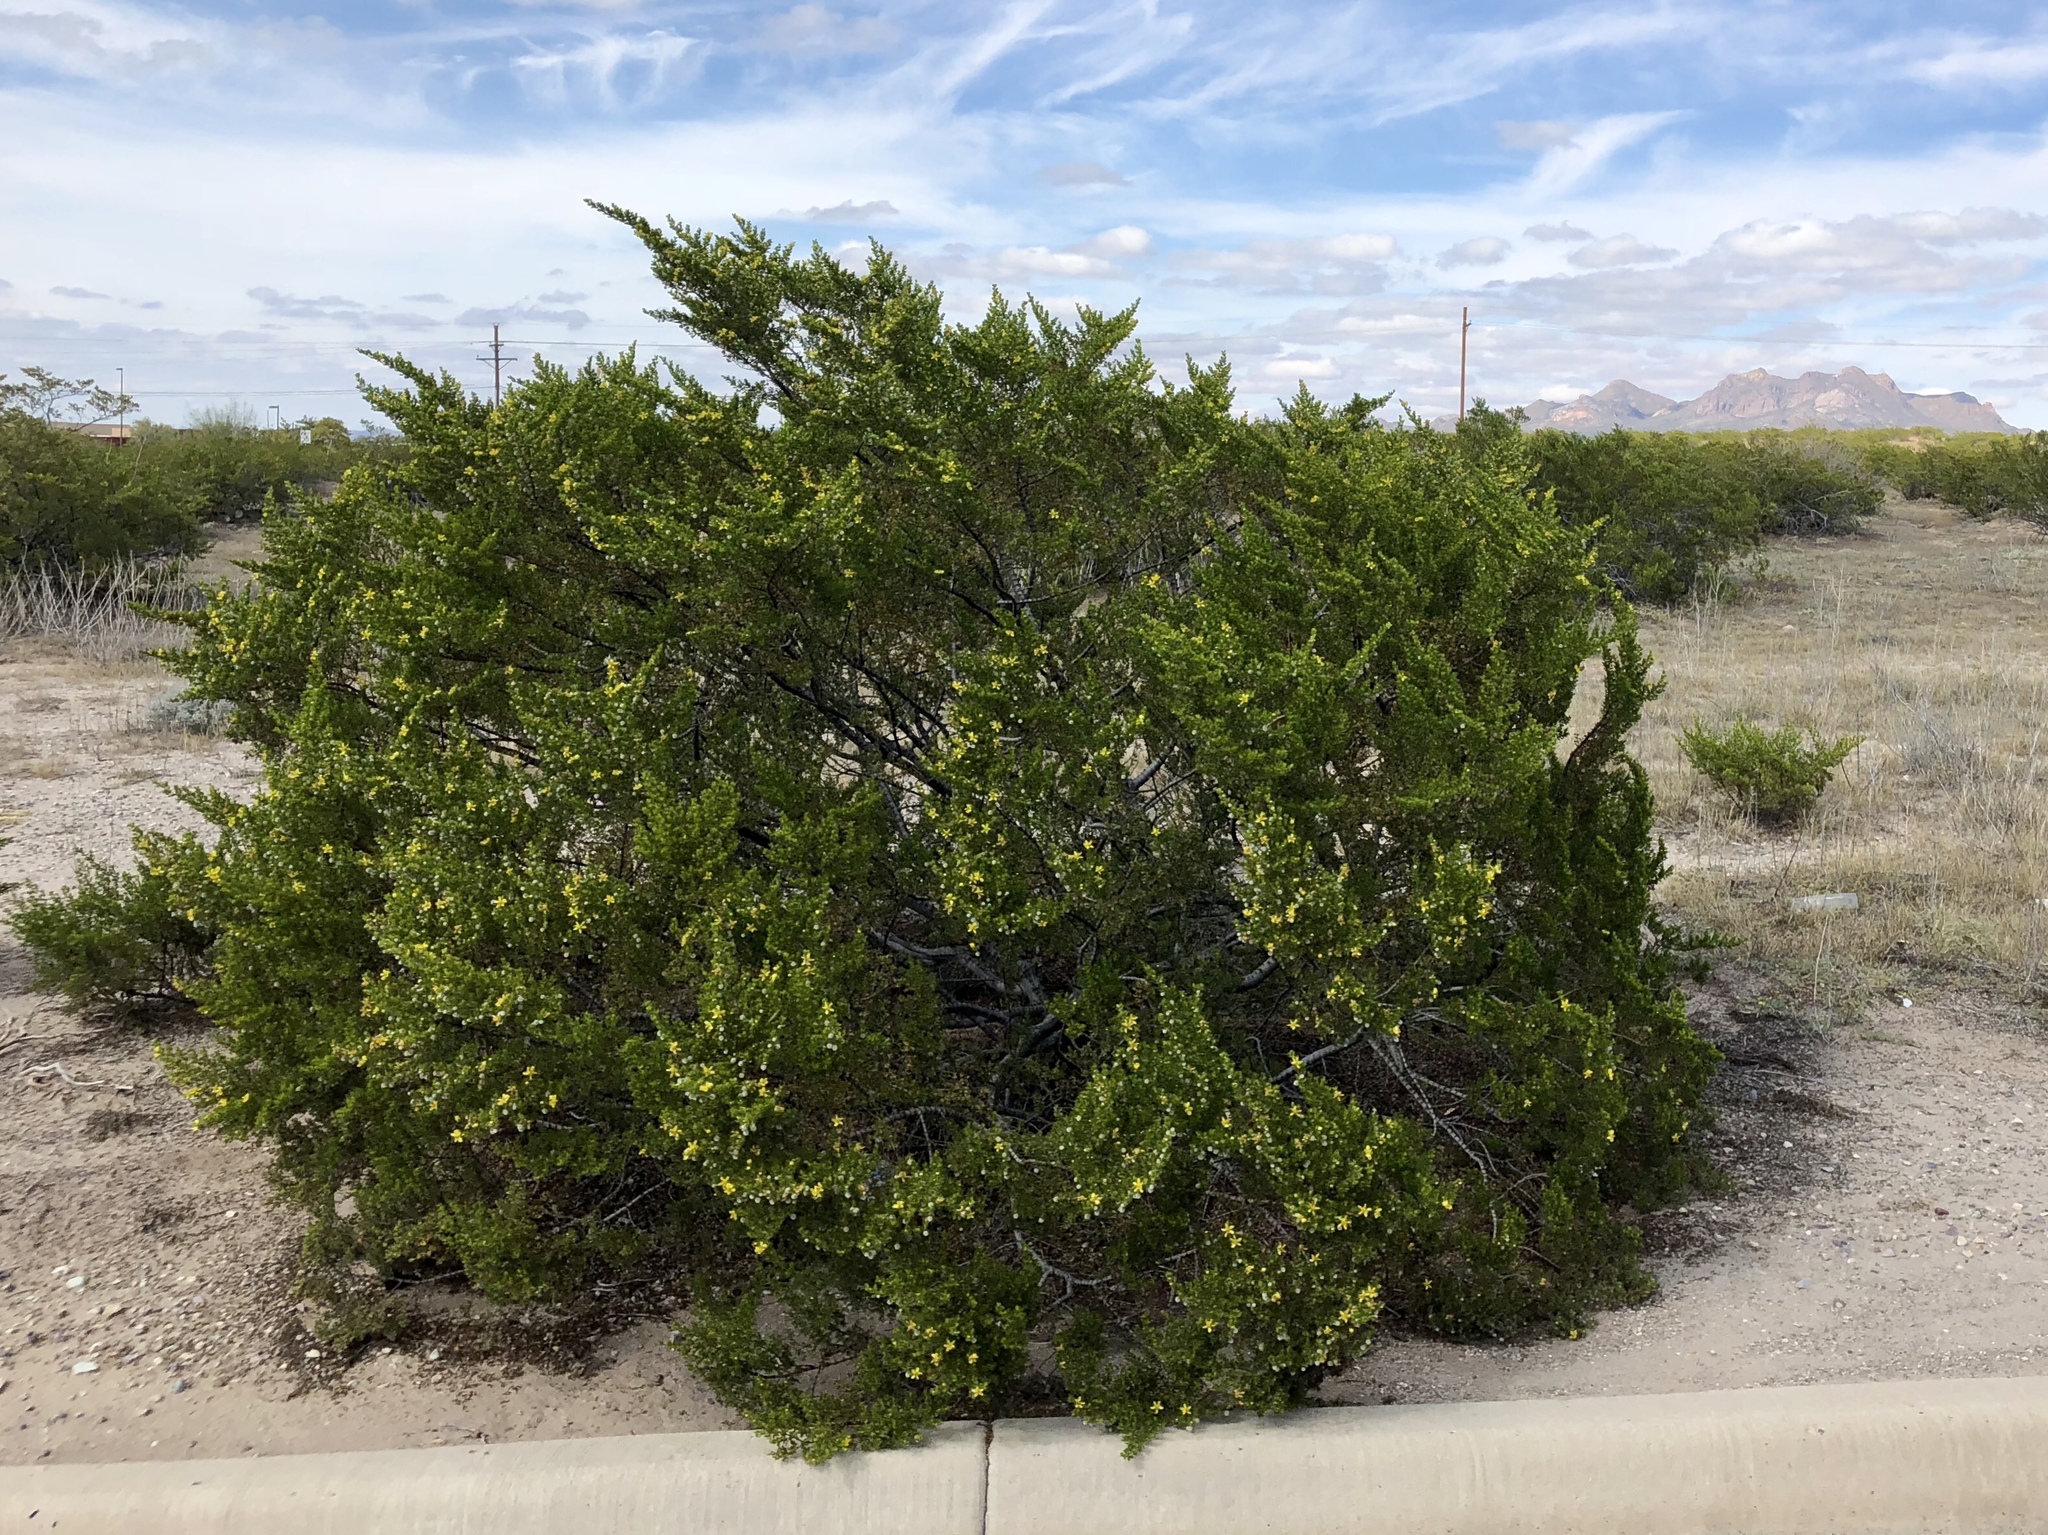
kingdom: Plantae
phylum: Tracheophyta
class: Magnoliopsida
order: Zygophyllales
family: Zygophyllaceae
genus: Larrea
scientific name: Larrea tridentata
